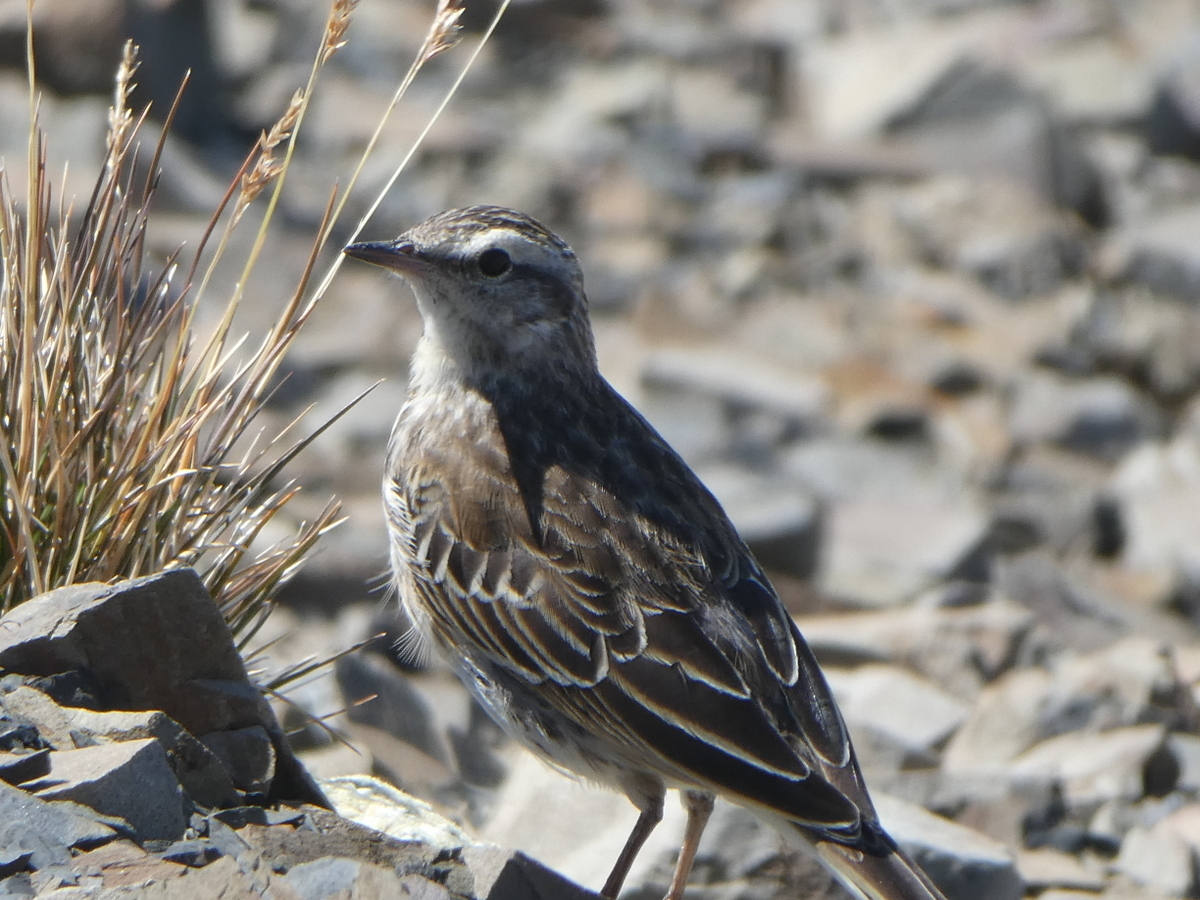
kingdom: Animalia
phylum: Chordata
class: Aves
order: Passeriformes
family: Motacillidae
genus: Anthus
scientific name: Anthus novaeseelandiae
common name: New zealand pipit
